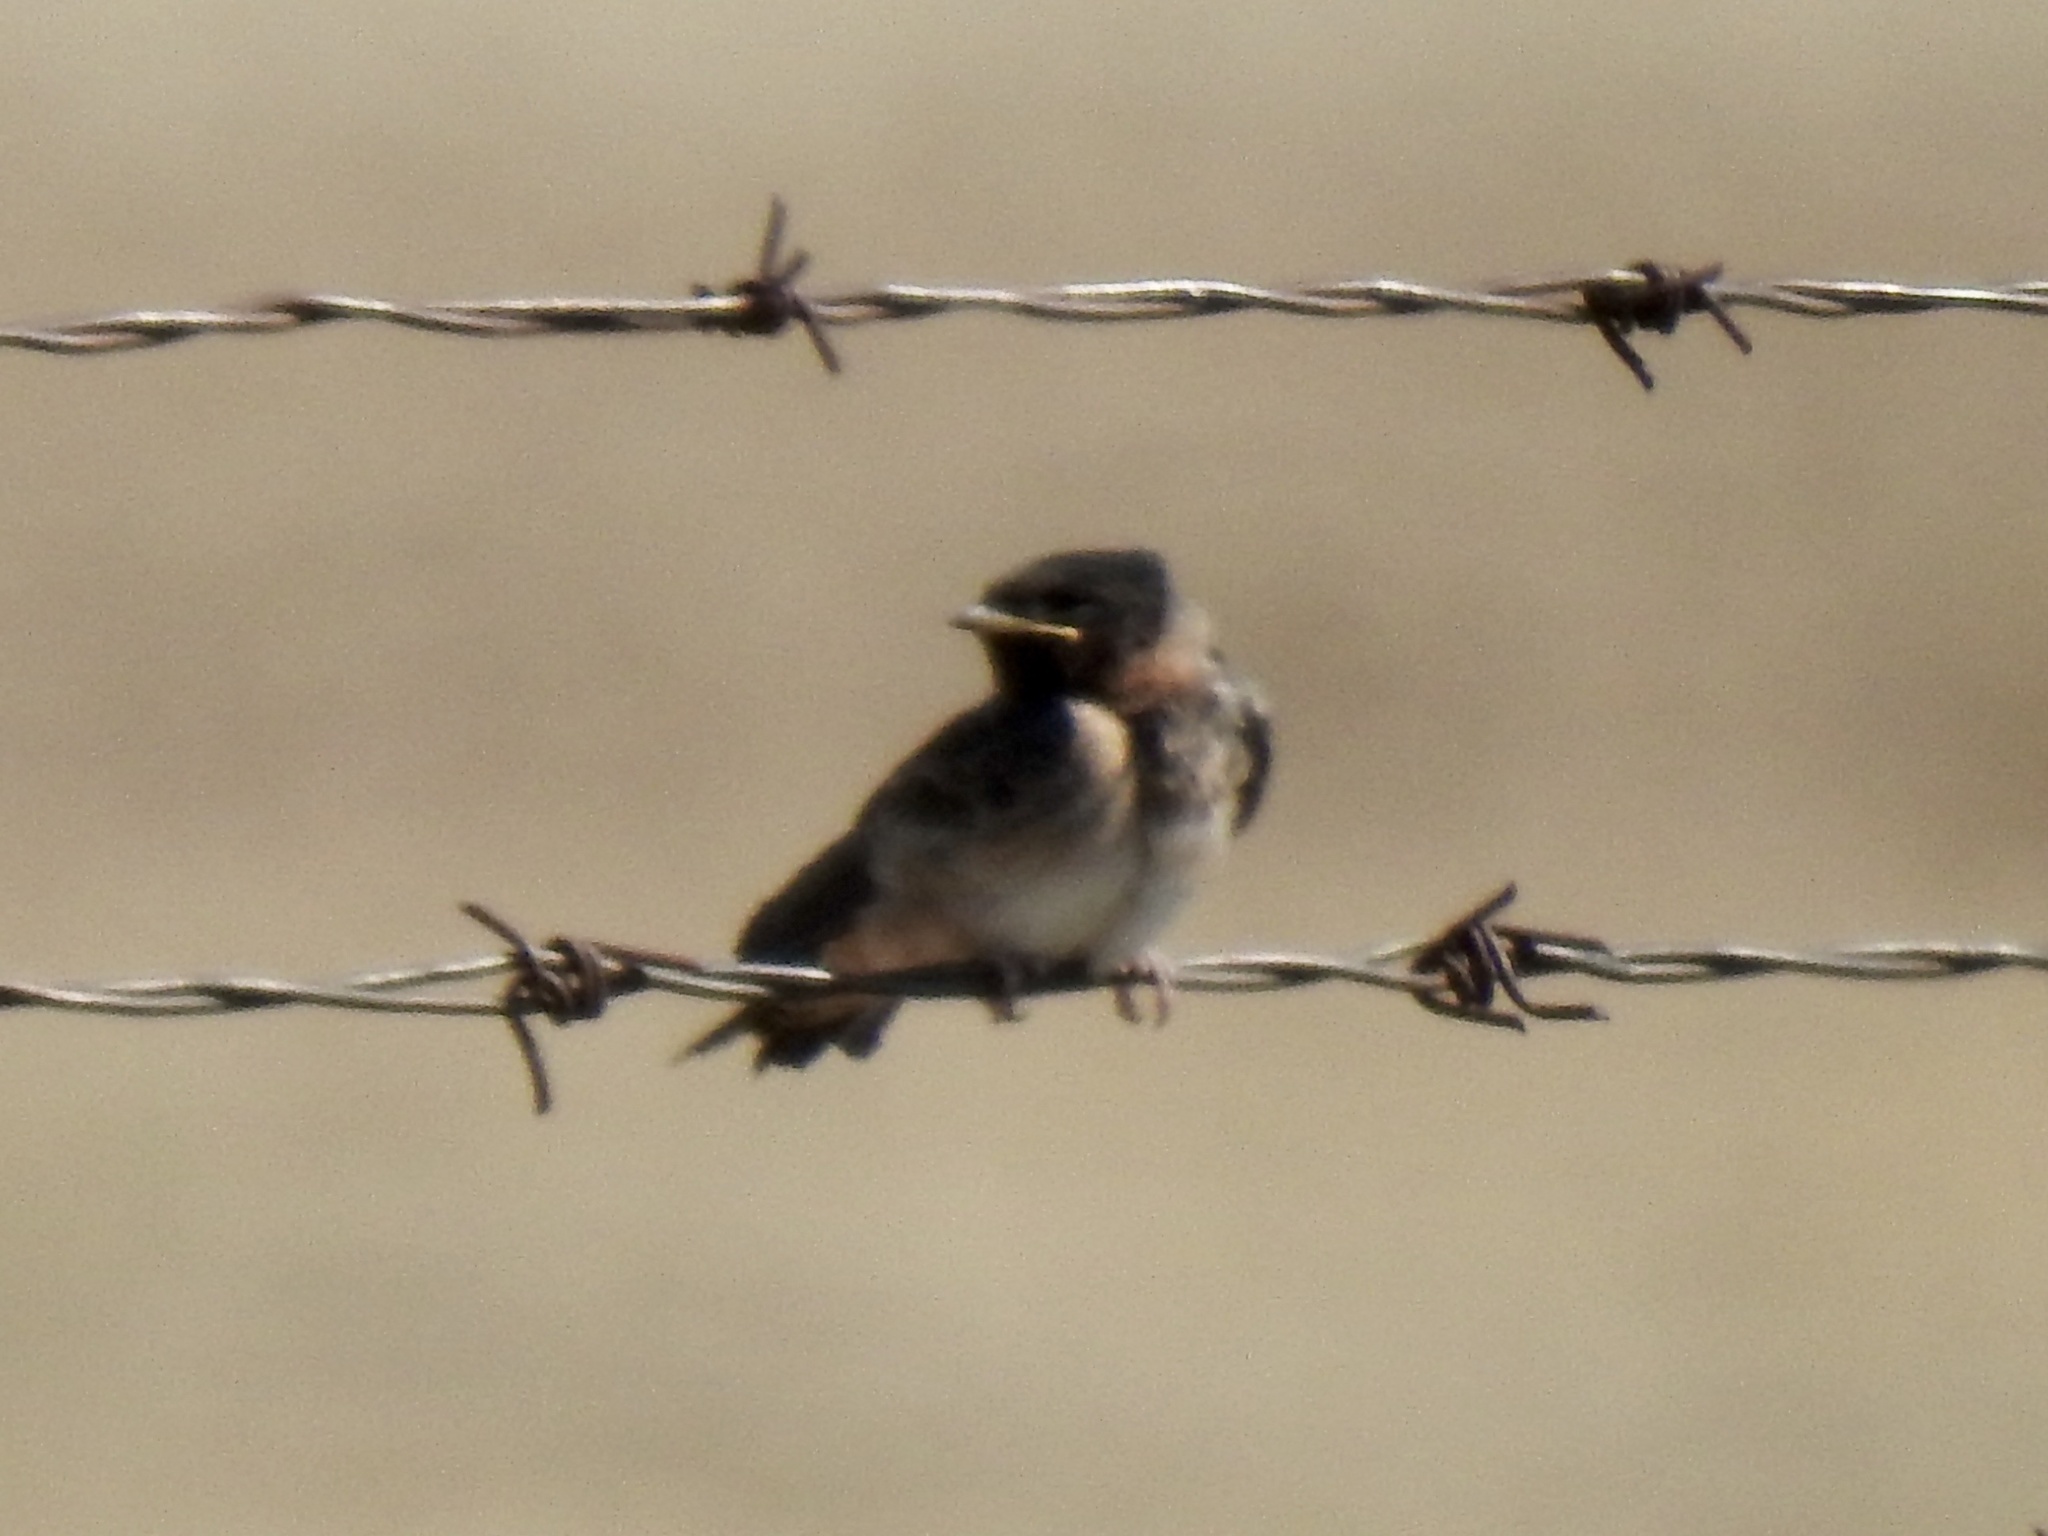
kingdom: Animalia
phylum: Chordata
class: Aves
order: Passeriformes
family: Hirundinidae
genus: Petrochelidon
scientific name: Petrochelidon pyrrhonota
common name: American cliff swallow
